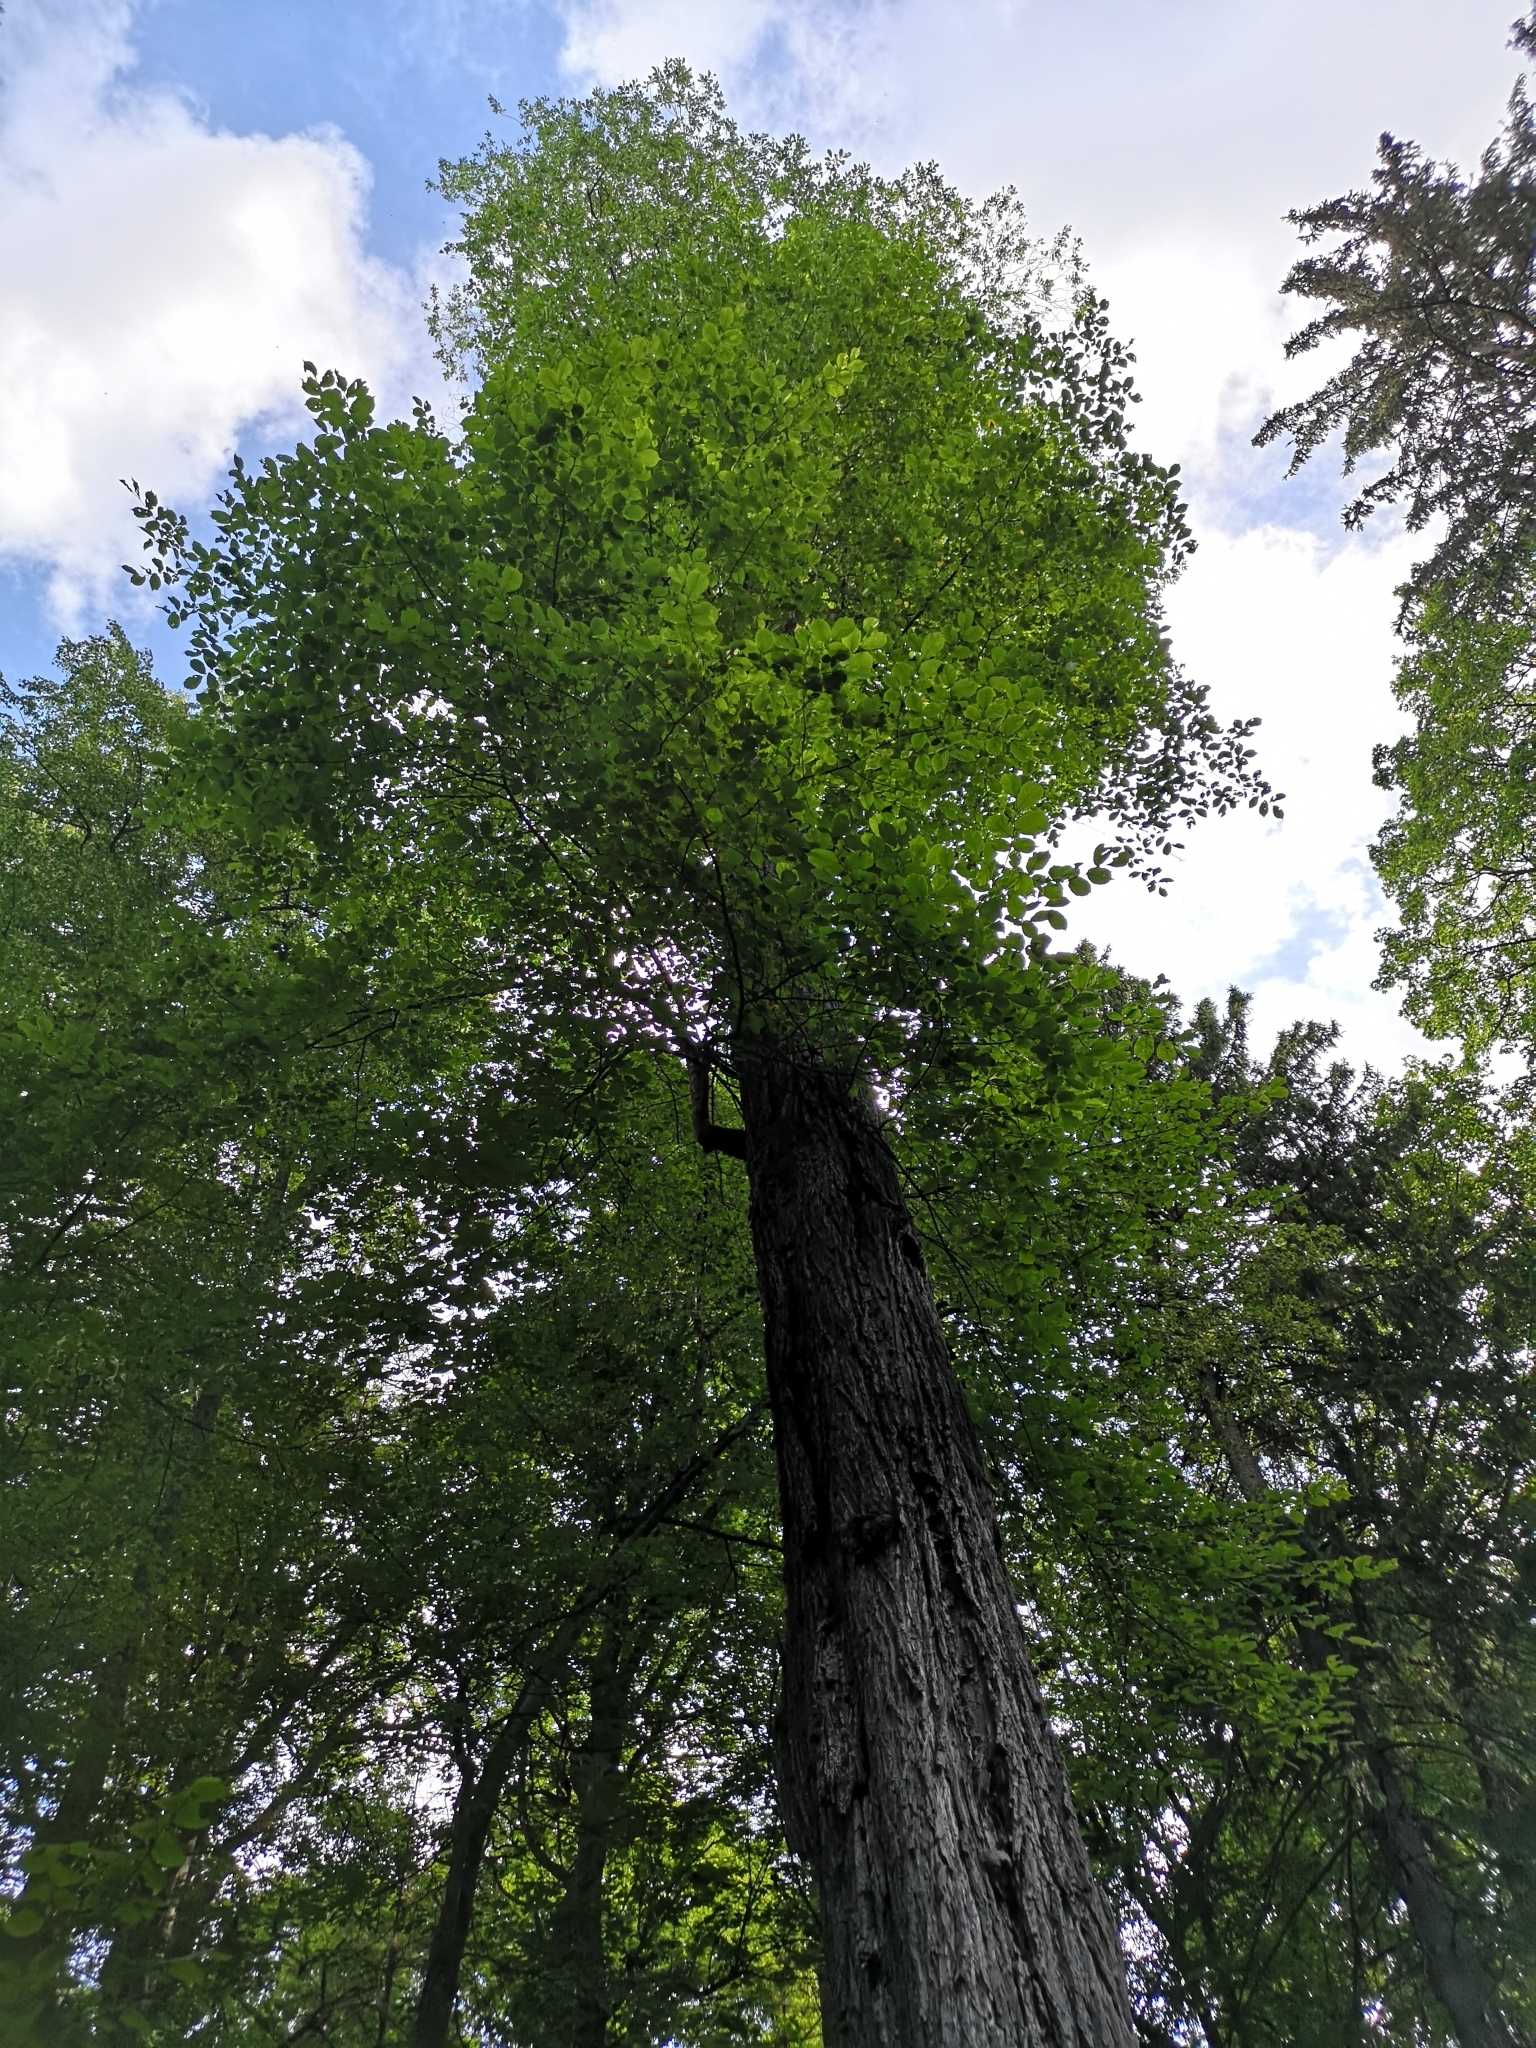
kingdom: Plantae
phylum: Tracheophyta
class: Magnoliopsida
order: Rosales
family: Ulmaceae
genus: Ulmus
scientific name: Ulmus glabra
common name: Wych elm
